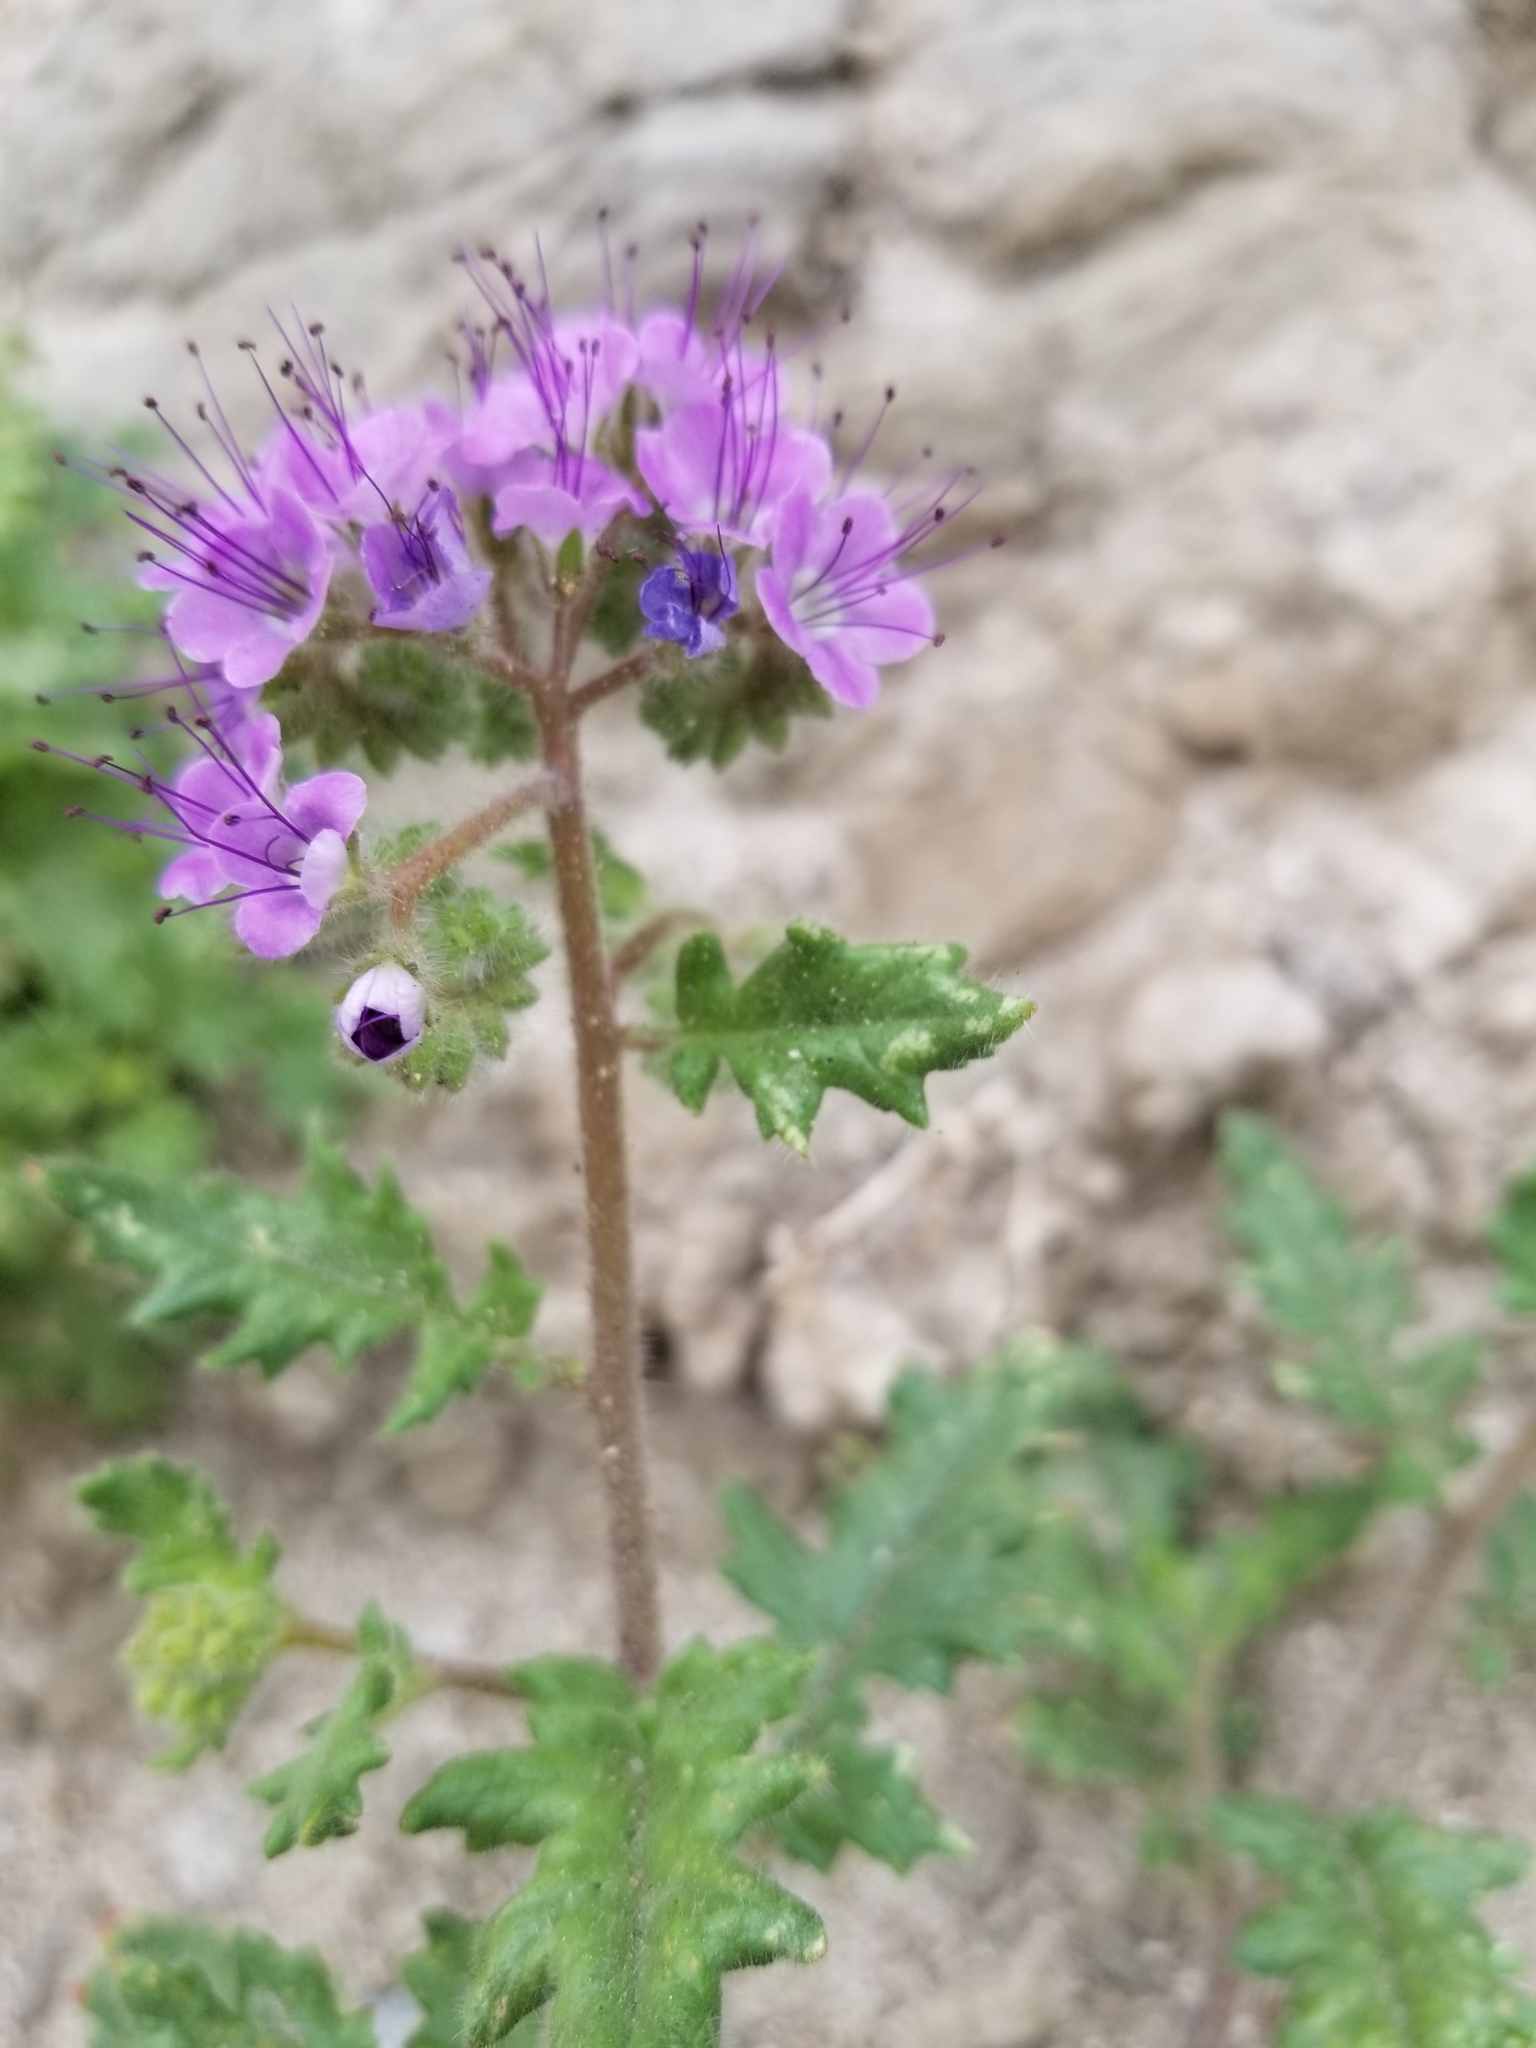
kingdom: Plantae
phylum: Tracheophyta
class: Magnoliopsida
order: Boraginales
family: Hydrophyllaceae
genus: Phacelia
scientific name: Phacelia crenulata
